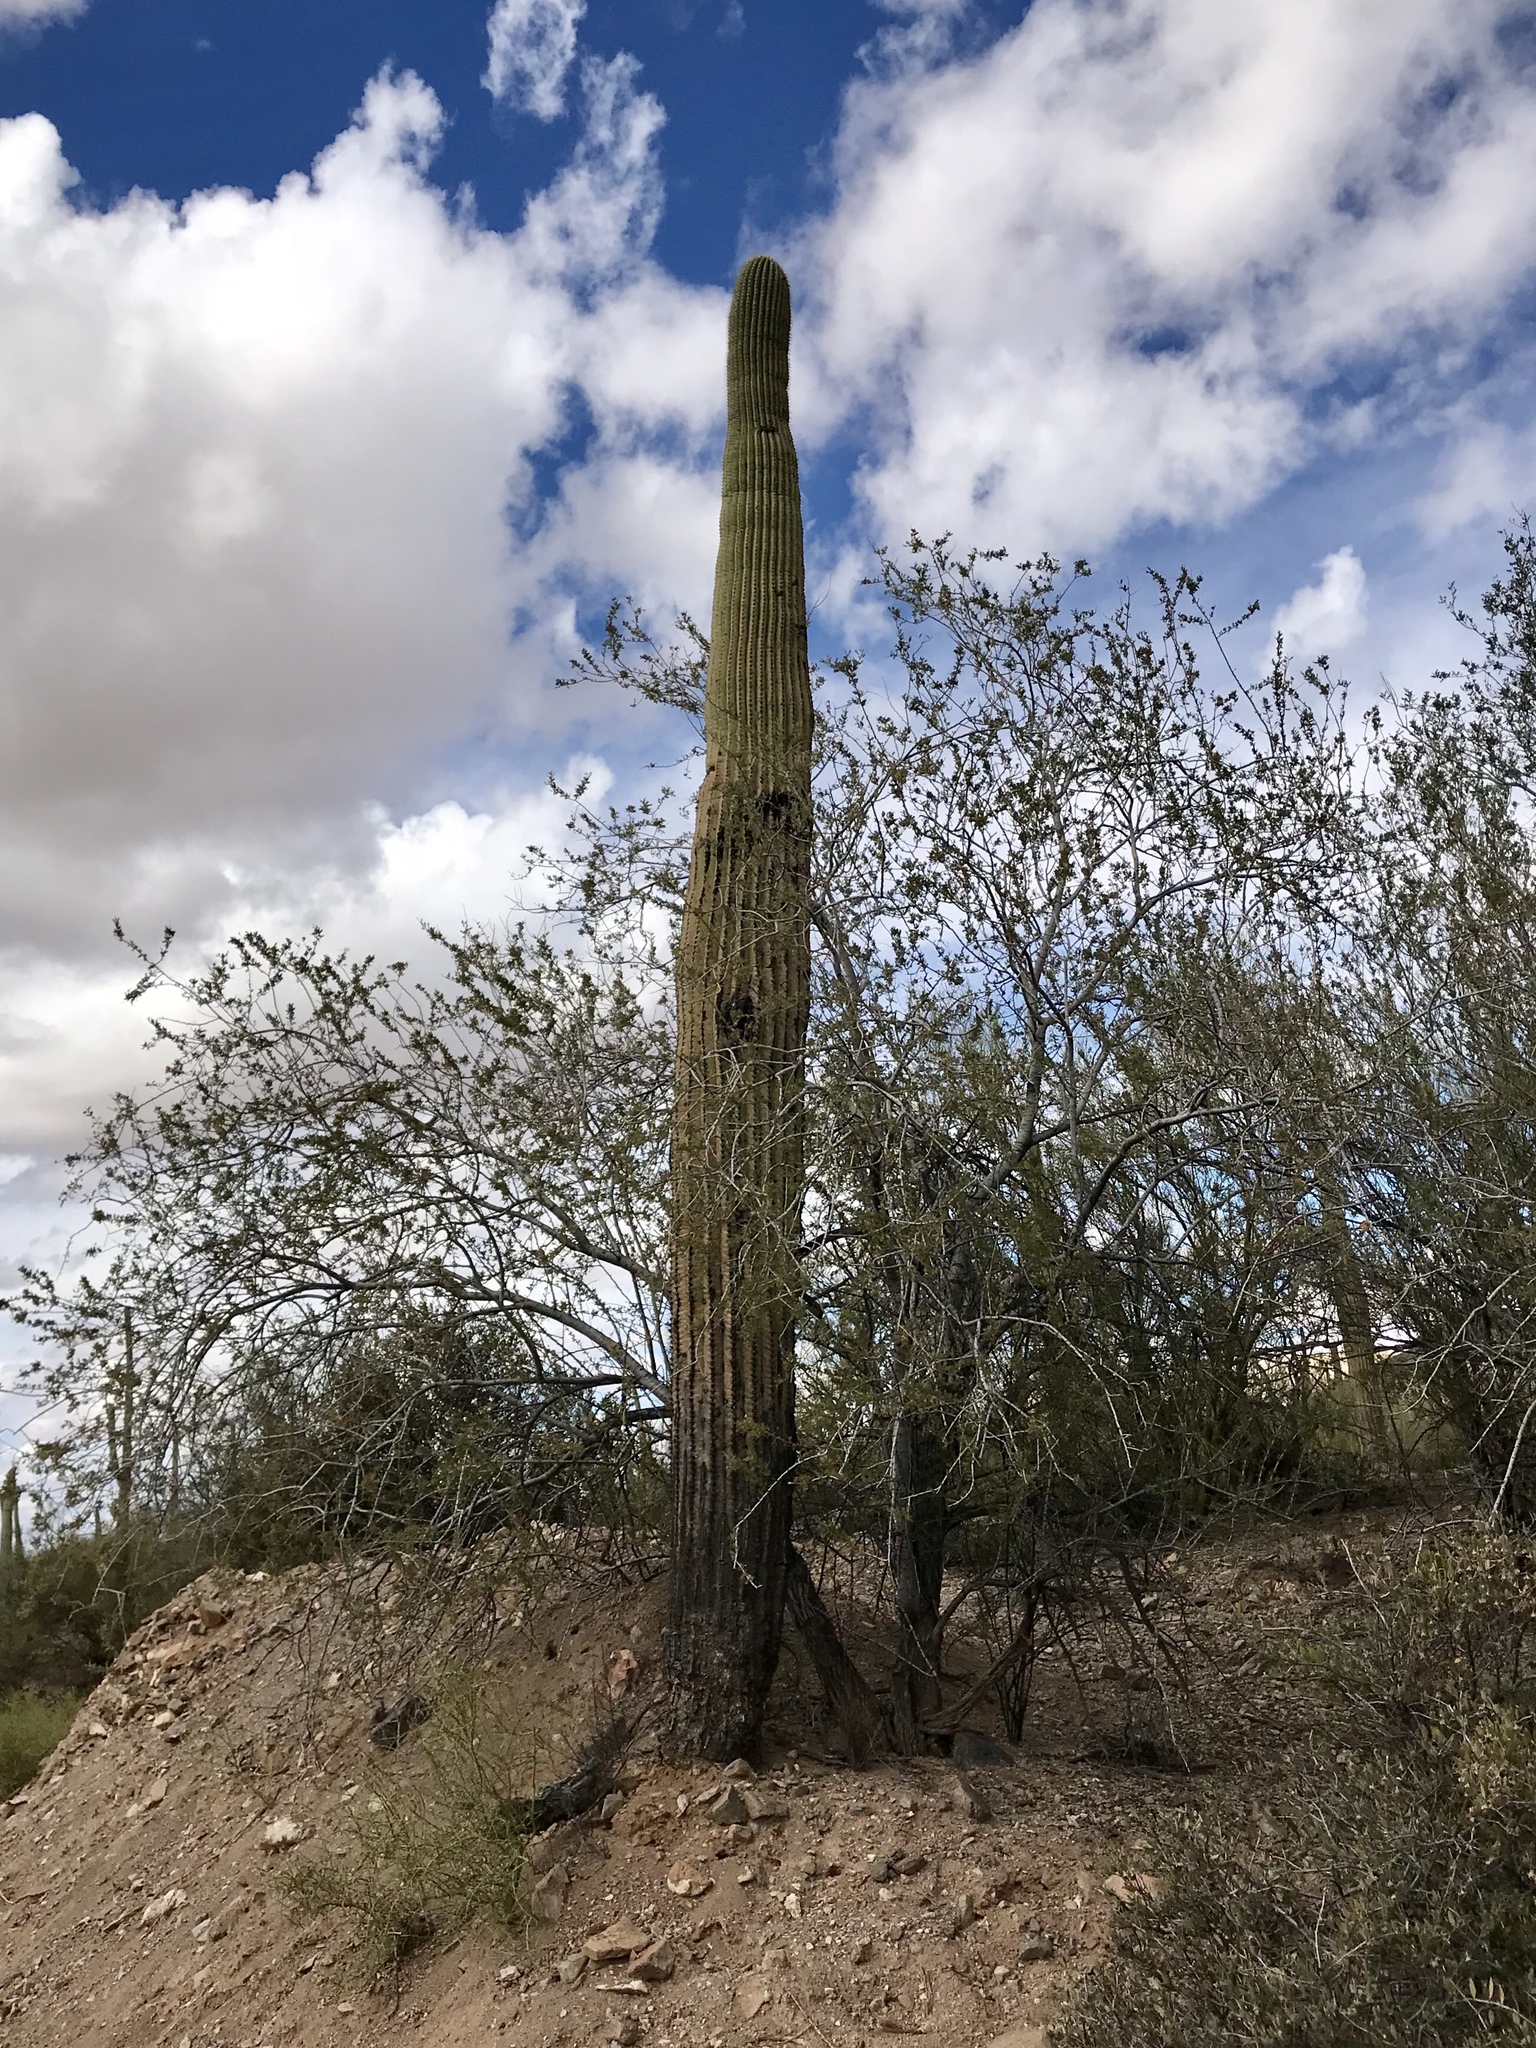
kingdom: Plantae
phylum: Tracheophyta
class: Magnoliopsida
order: Caryophyllales
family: Cactaceae
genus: Carnegiea
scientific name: Carnegiea gigantea
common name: Saguaro
